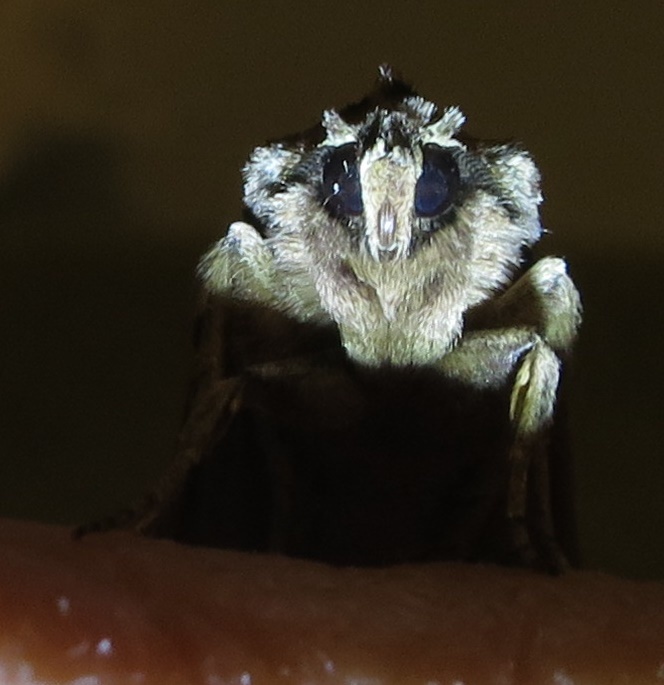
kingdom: Animalia
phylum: Arthropoda
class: Insecta
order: Lepidoptera
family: Noctuidae
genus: Ichneutica
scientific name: Ichneutica mutans
